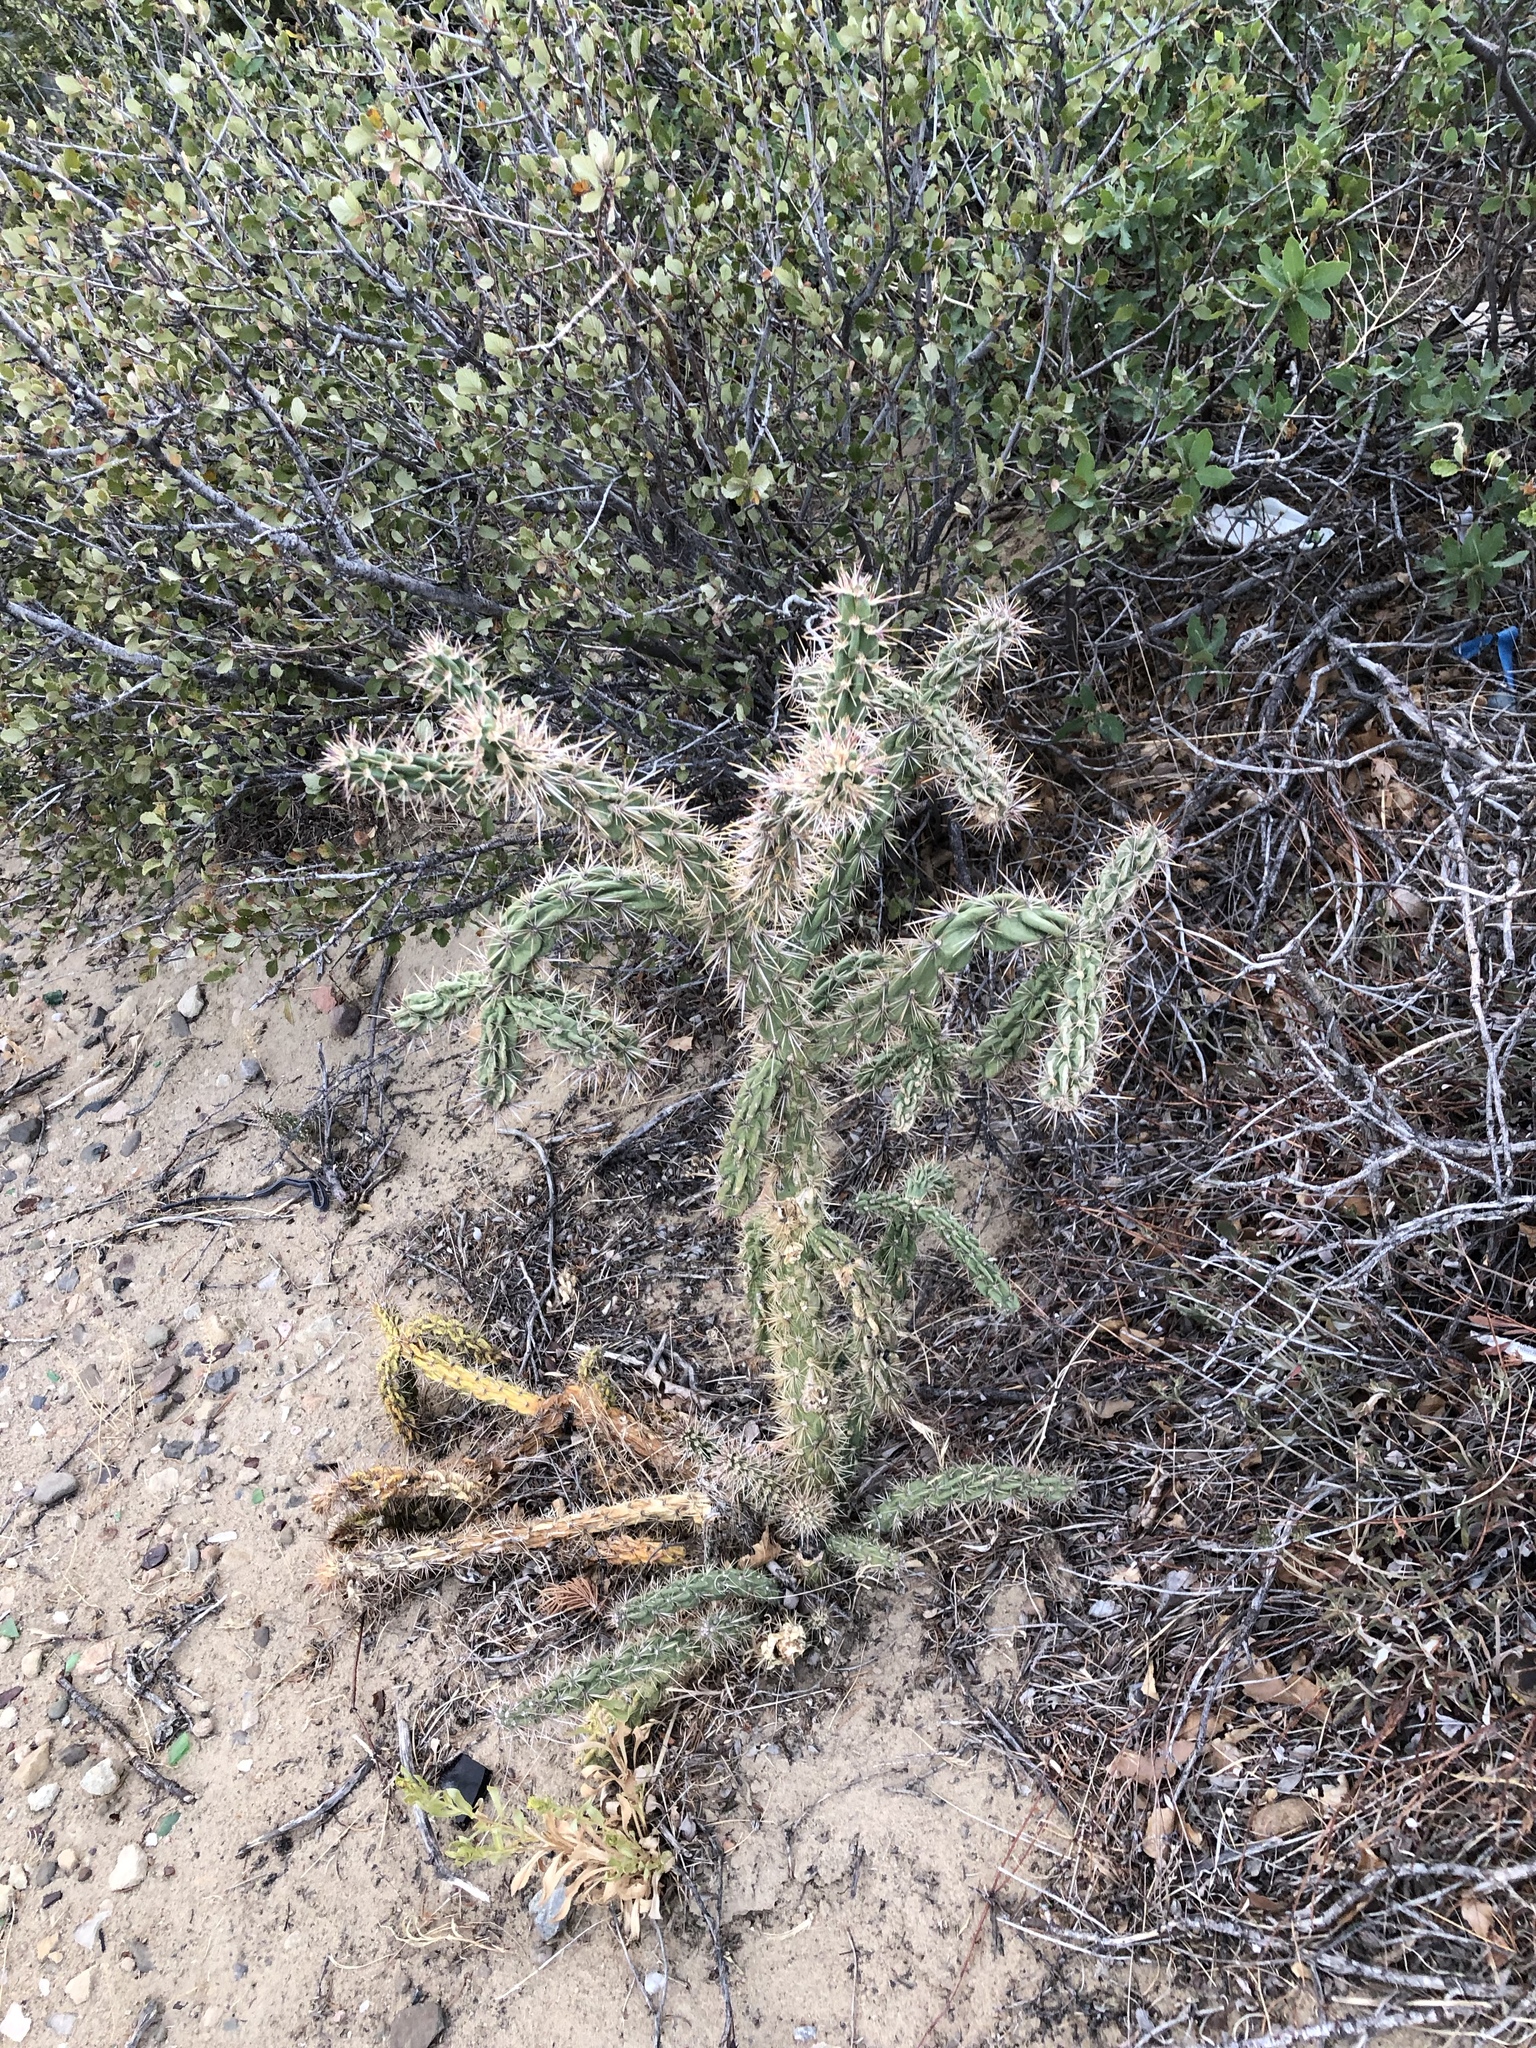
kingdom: Plantae
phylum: Tracheophyta
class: Magnoliopsida
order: Caryophyllales
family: Cactaceae
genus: Cylindropuntia
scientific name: Cylindropuntia imbricata
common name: Candelabrum cactus
